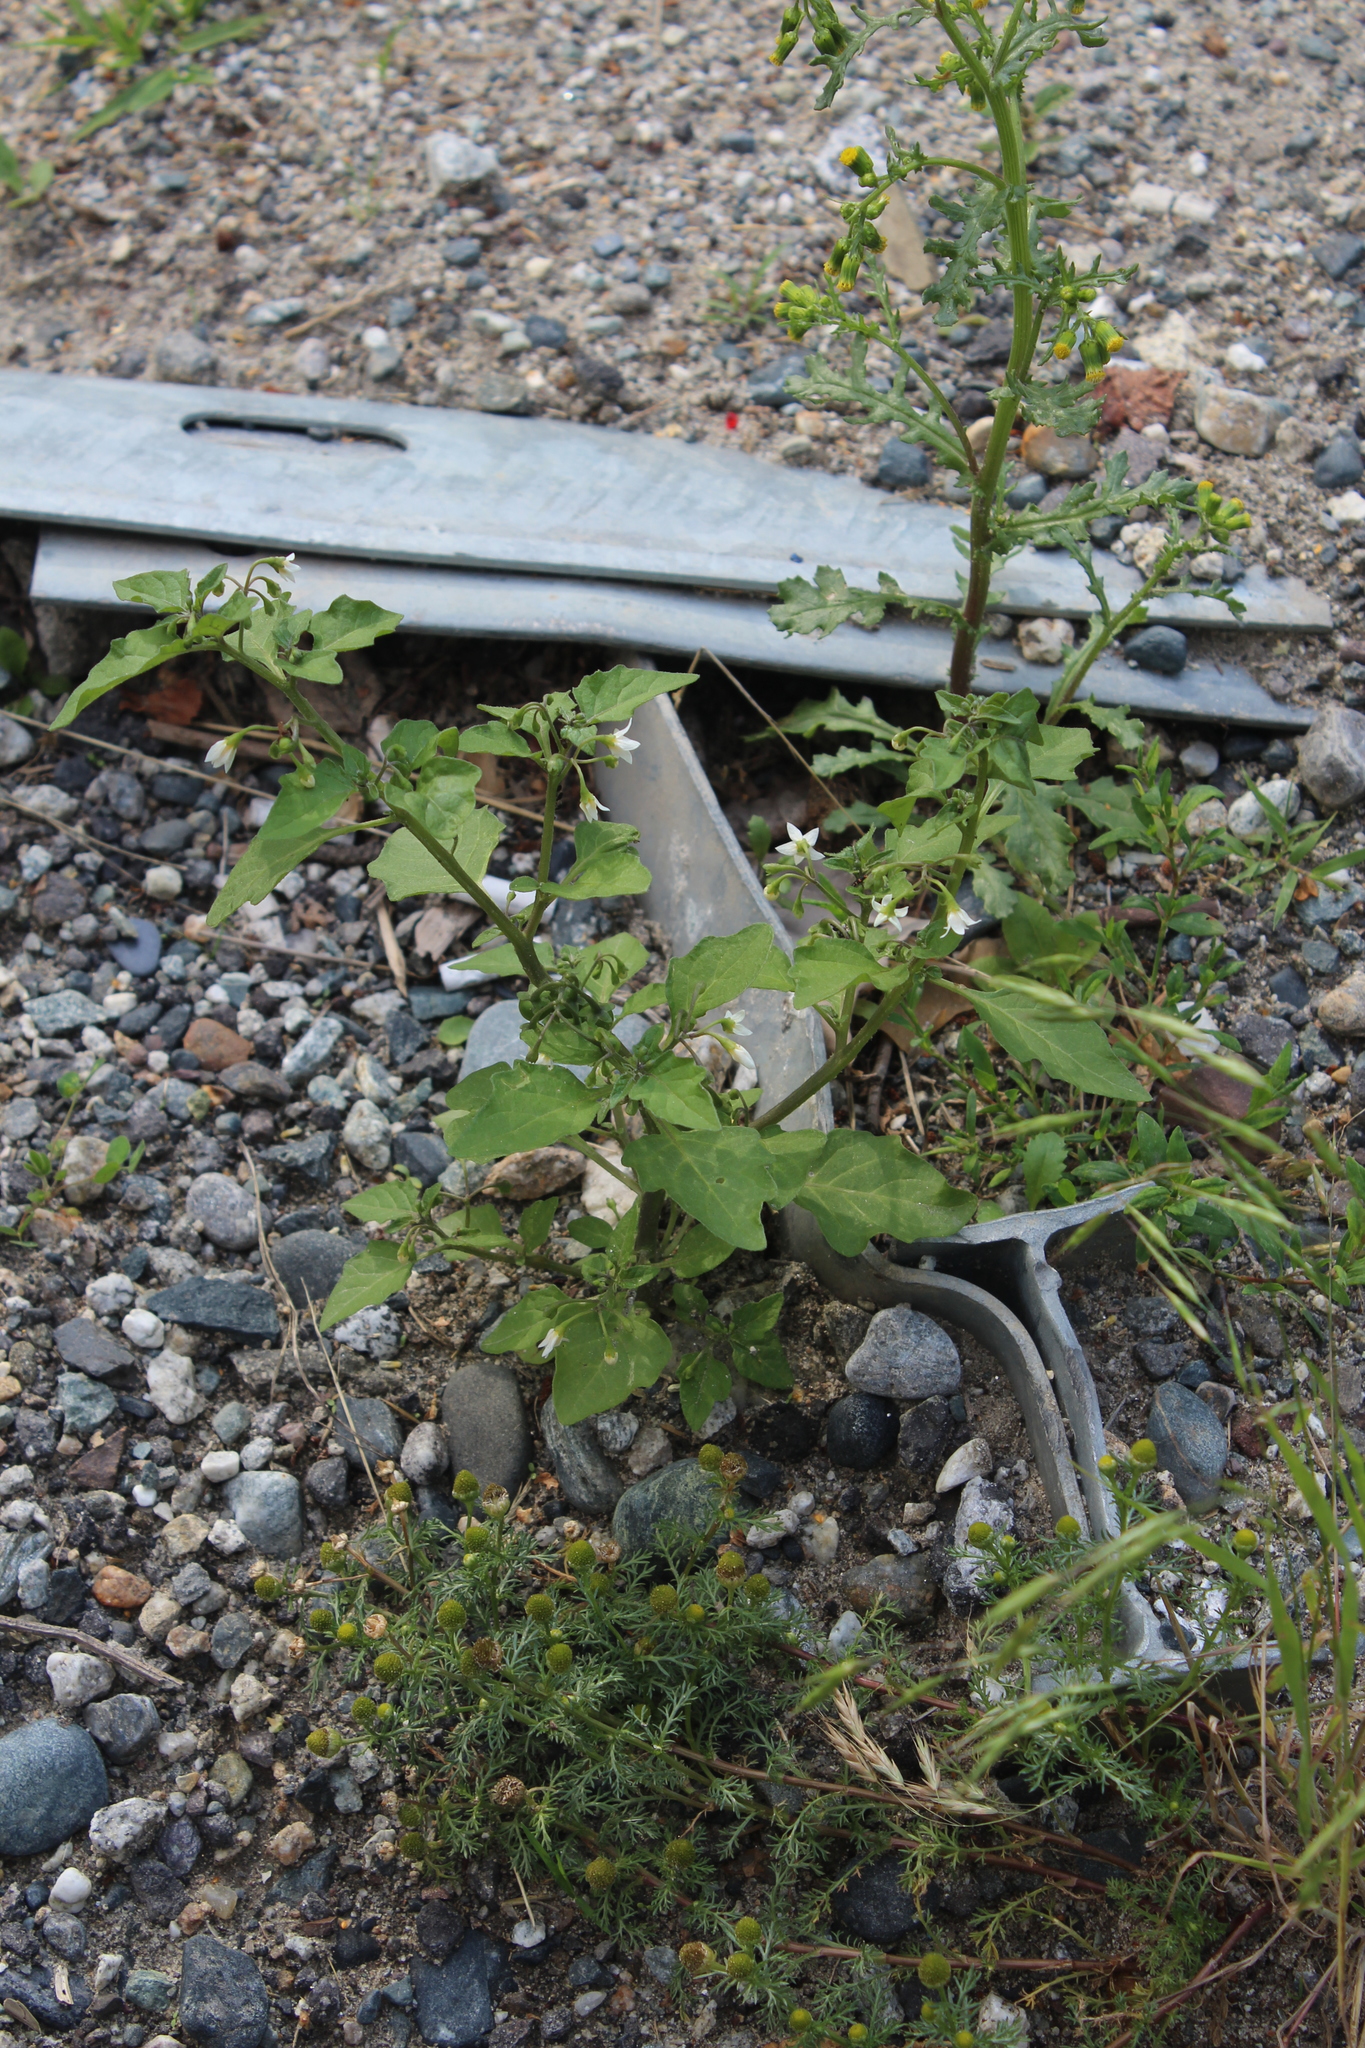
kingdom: Plantae
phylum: Tracheophyta
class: Magnoliopsida
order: Solanales
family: Solanaceae
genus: Solanum
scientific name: Solanum nigrum
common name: Black nightshade
